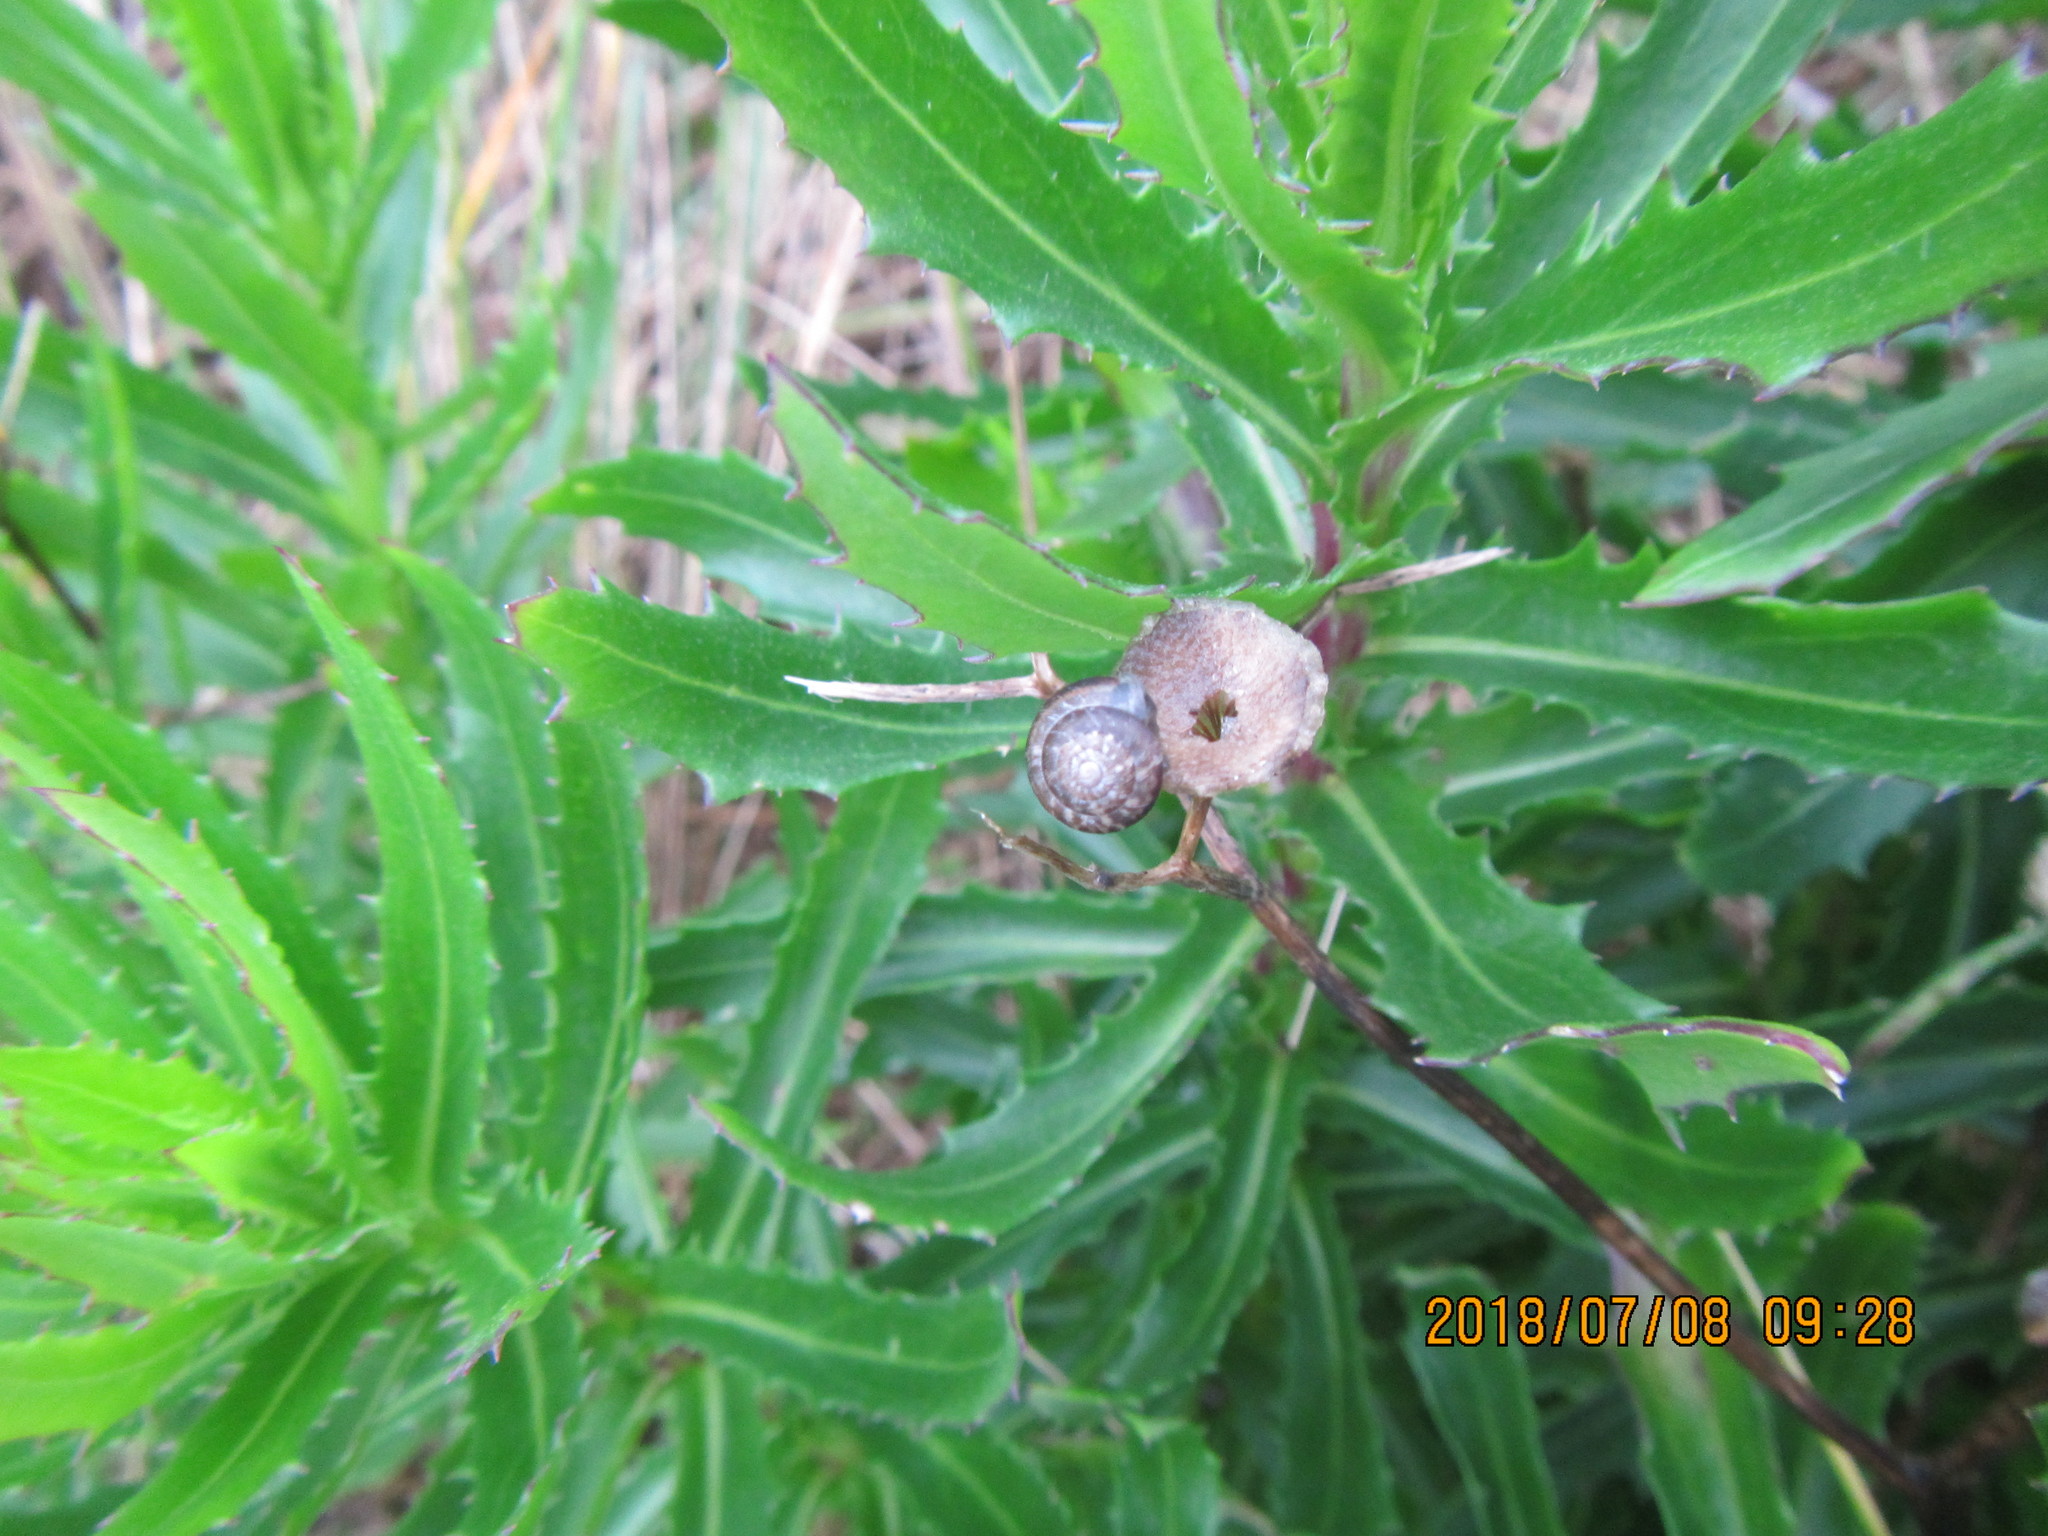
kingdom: Animalia
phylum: Mollusca
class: Gastropoda
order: Stylommatophora
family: Geomitridae
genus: Xeroplexa
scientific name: Xeroplexa intersecta
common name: Wrinkled snail
